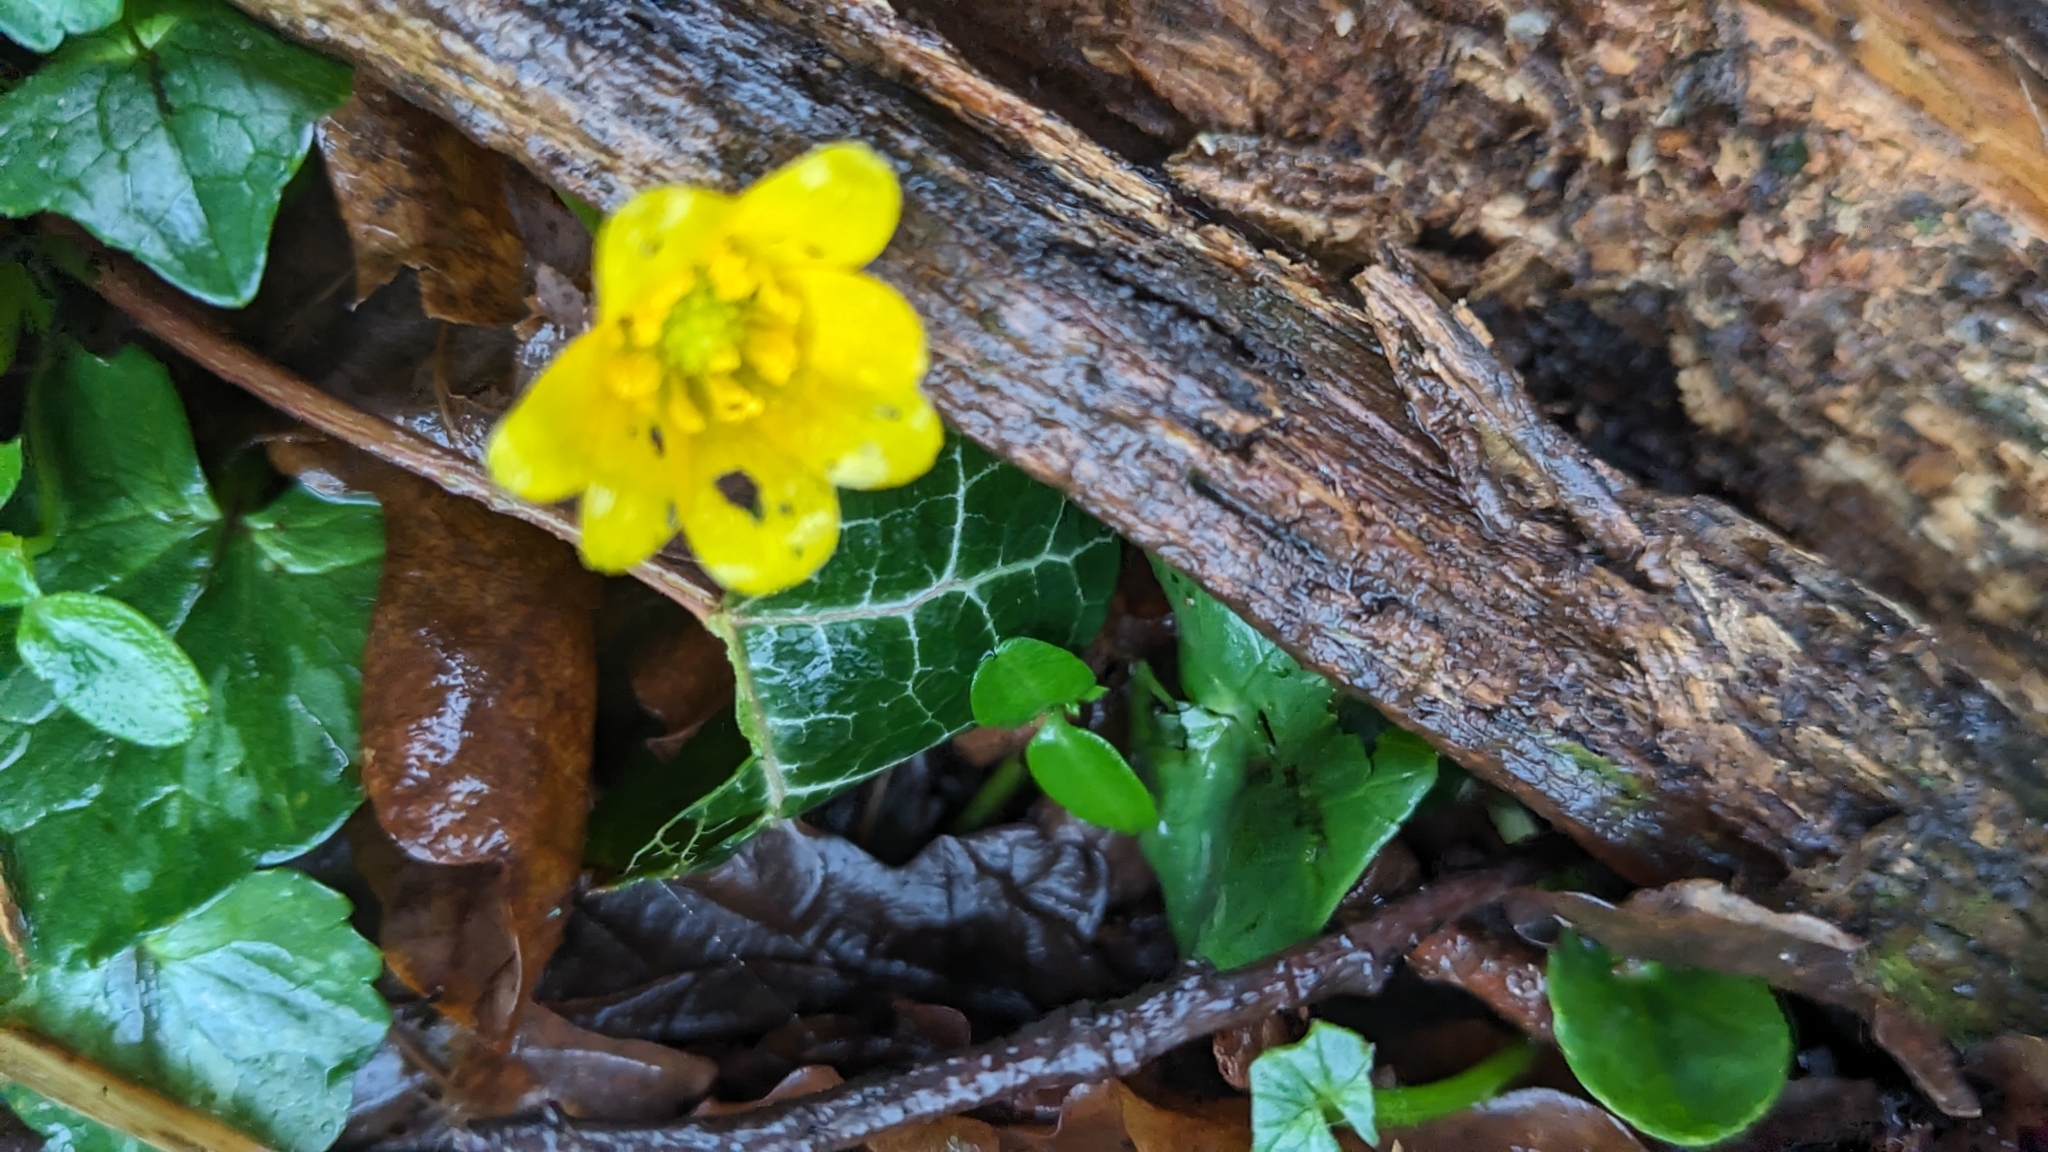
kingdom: Plantae
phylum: Tracheophyta
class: Magnoliopsida
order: Ranunculales
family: Ranunculaceae
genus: Ficaria
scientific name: Ficaria verna
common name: Lesser celandine
